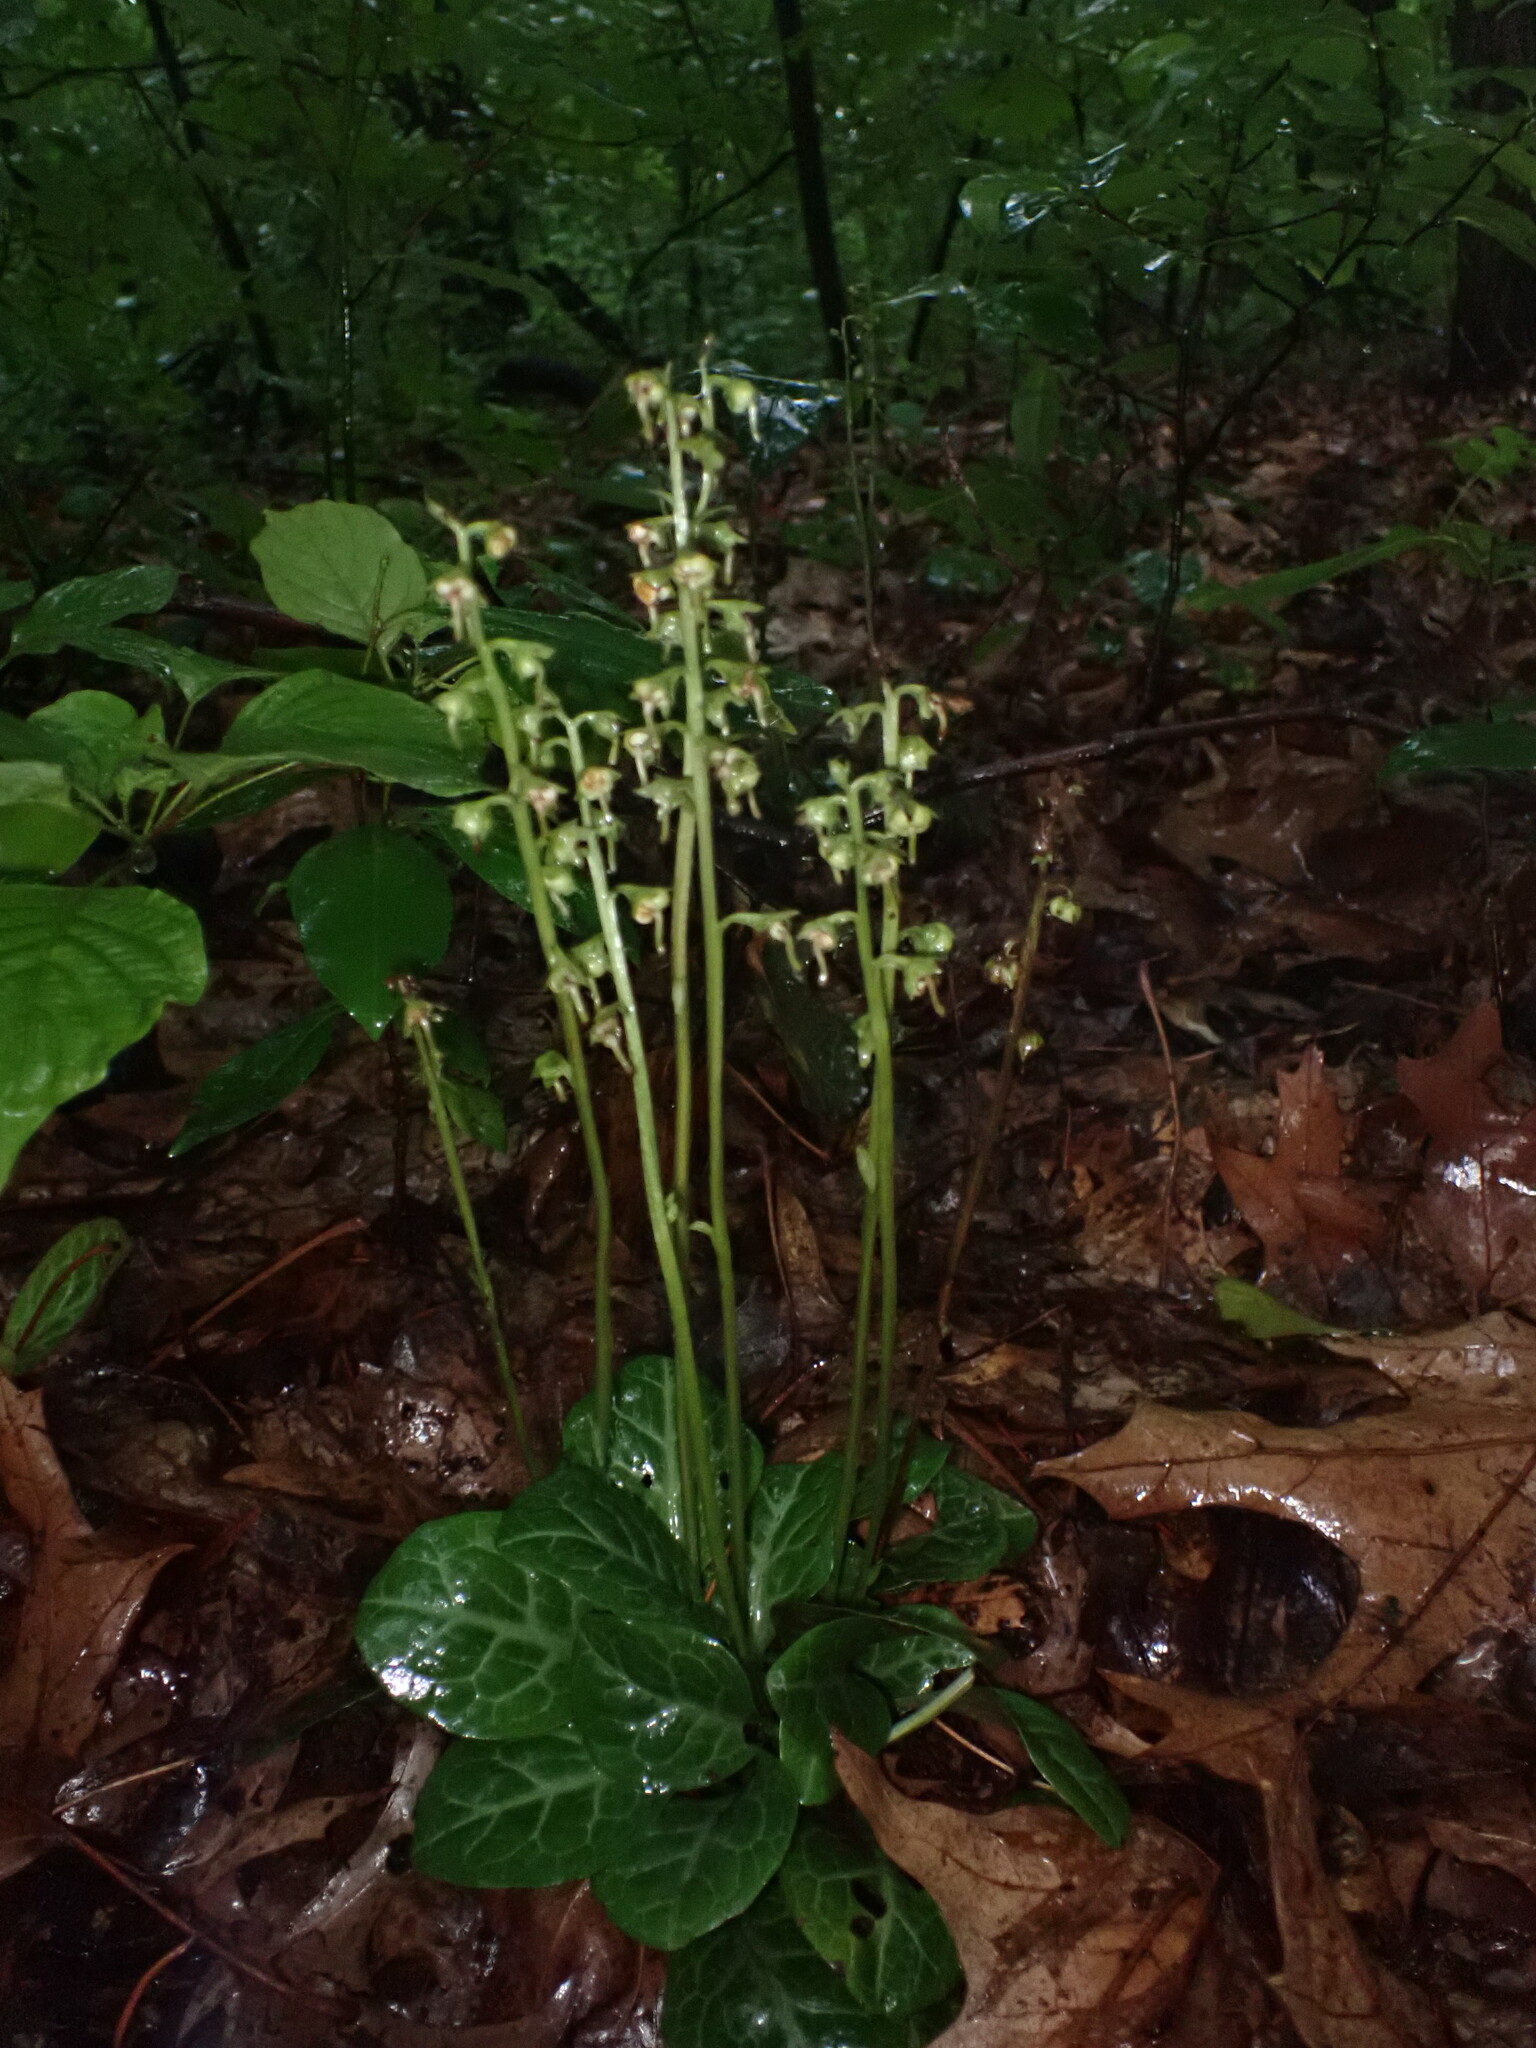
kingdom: Plantae
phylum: Tracheophyta
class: Magnoliopsida
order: Ericales
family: Ericaceae
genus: Pyrola
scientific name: Pyrola americana
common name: American wintergreen
